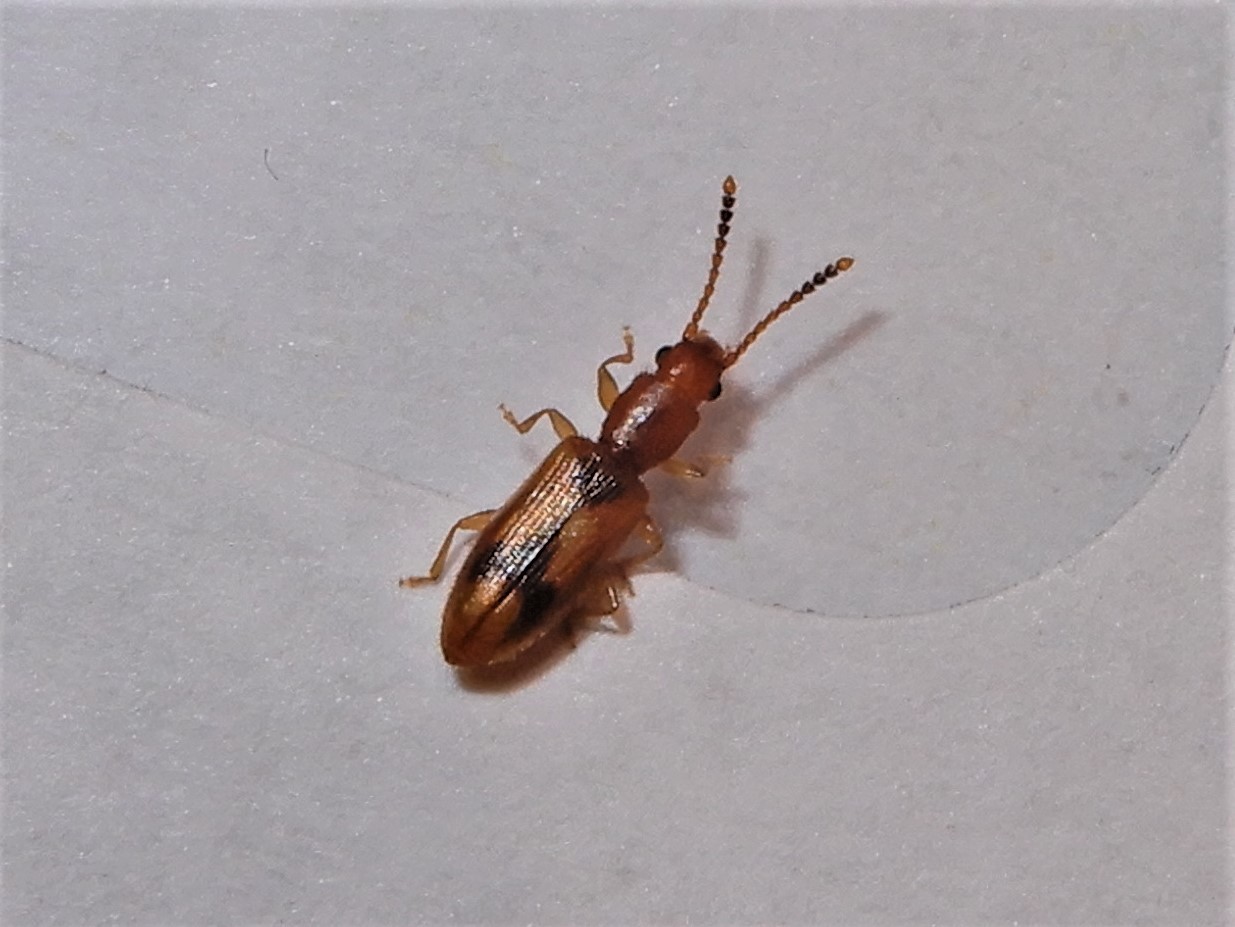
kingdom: Animalia
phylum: Arthropoda
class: Insecta
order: Coleoptera
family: Silvanidae
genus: Cryptamorpha
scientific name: Cryptamorpha desjardinsi
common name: Cryptamorpha
